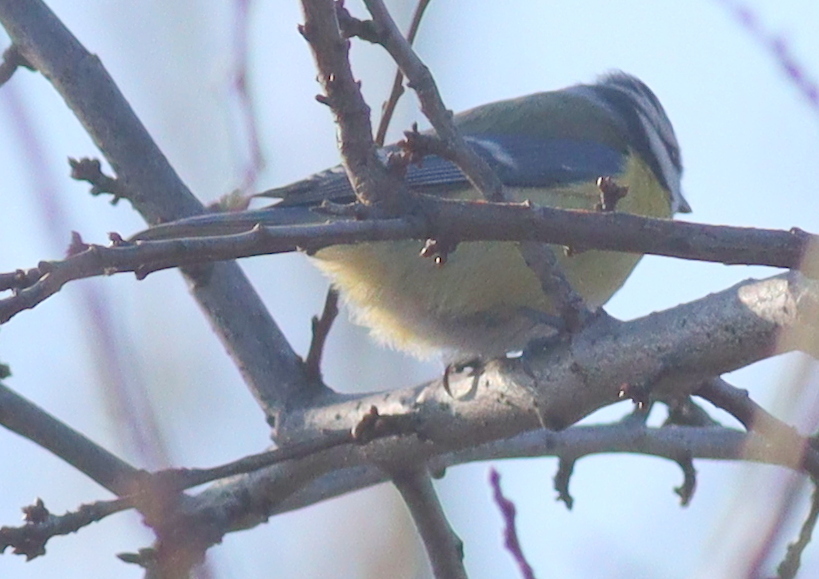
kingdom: Animalia
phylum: Chordata
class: Aves
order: Passeriformes
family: Paridae
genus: Cyanistes
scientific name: Cyanistes caeruleus
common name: Eurasian blue tit
